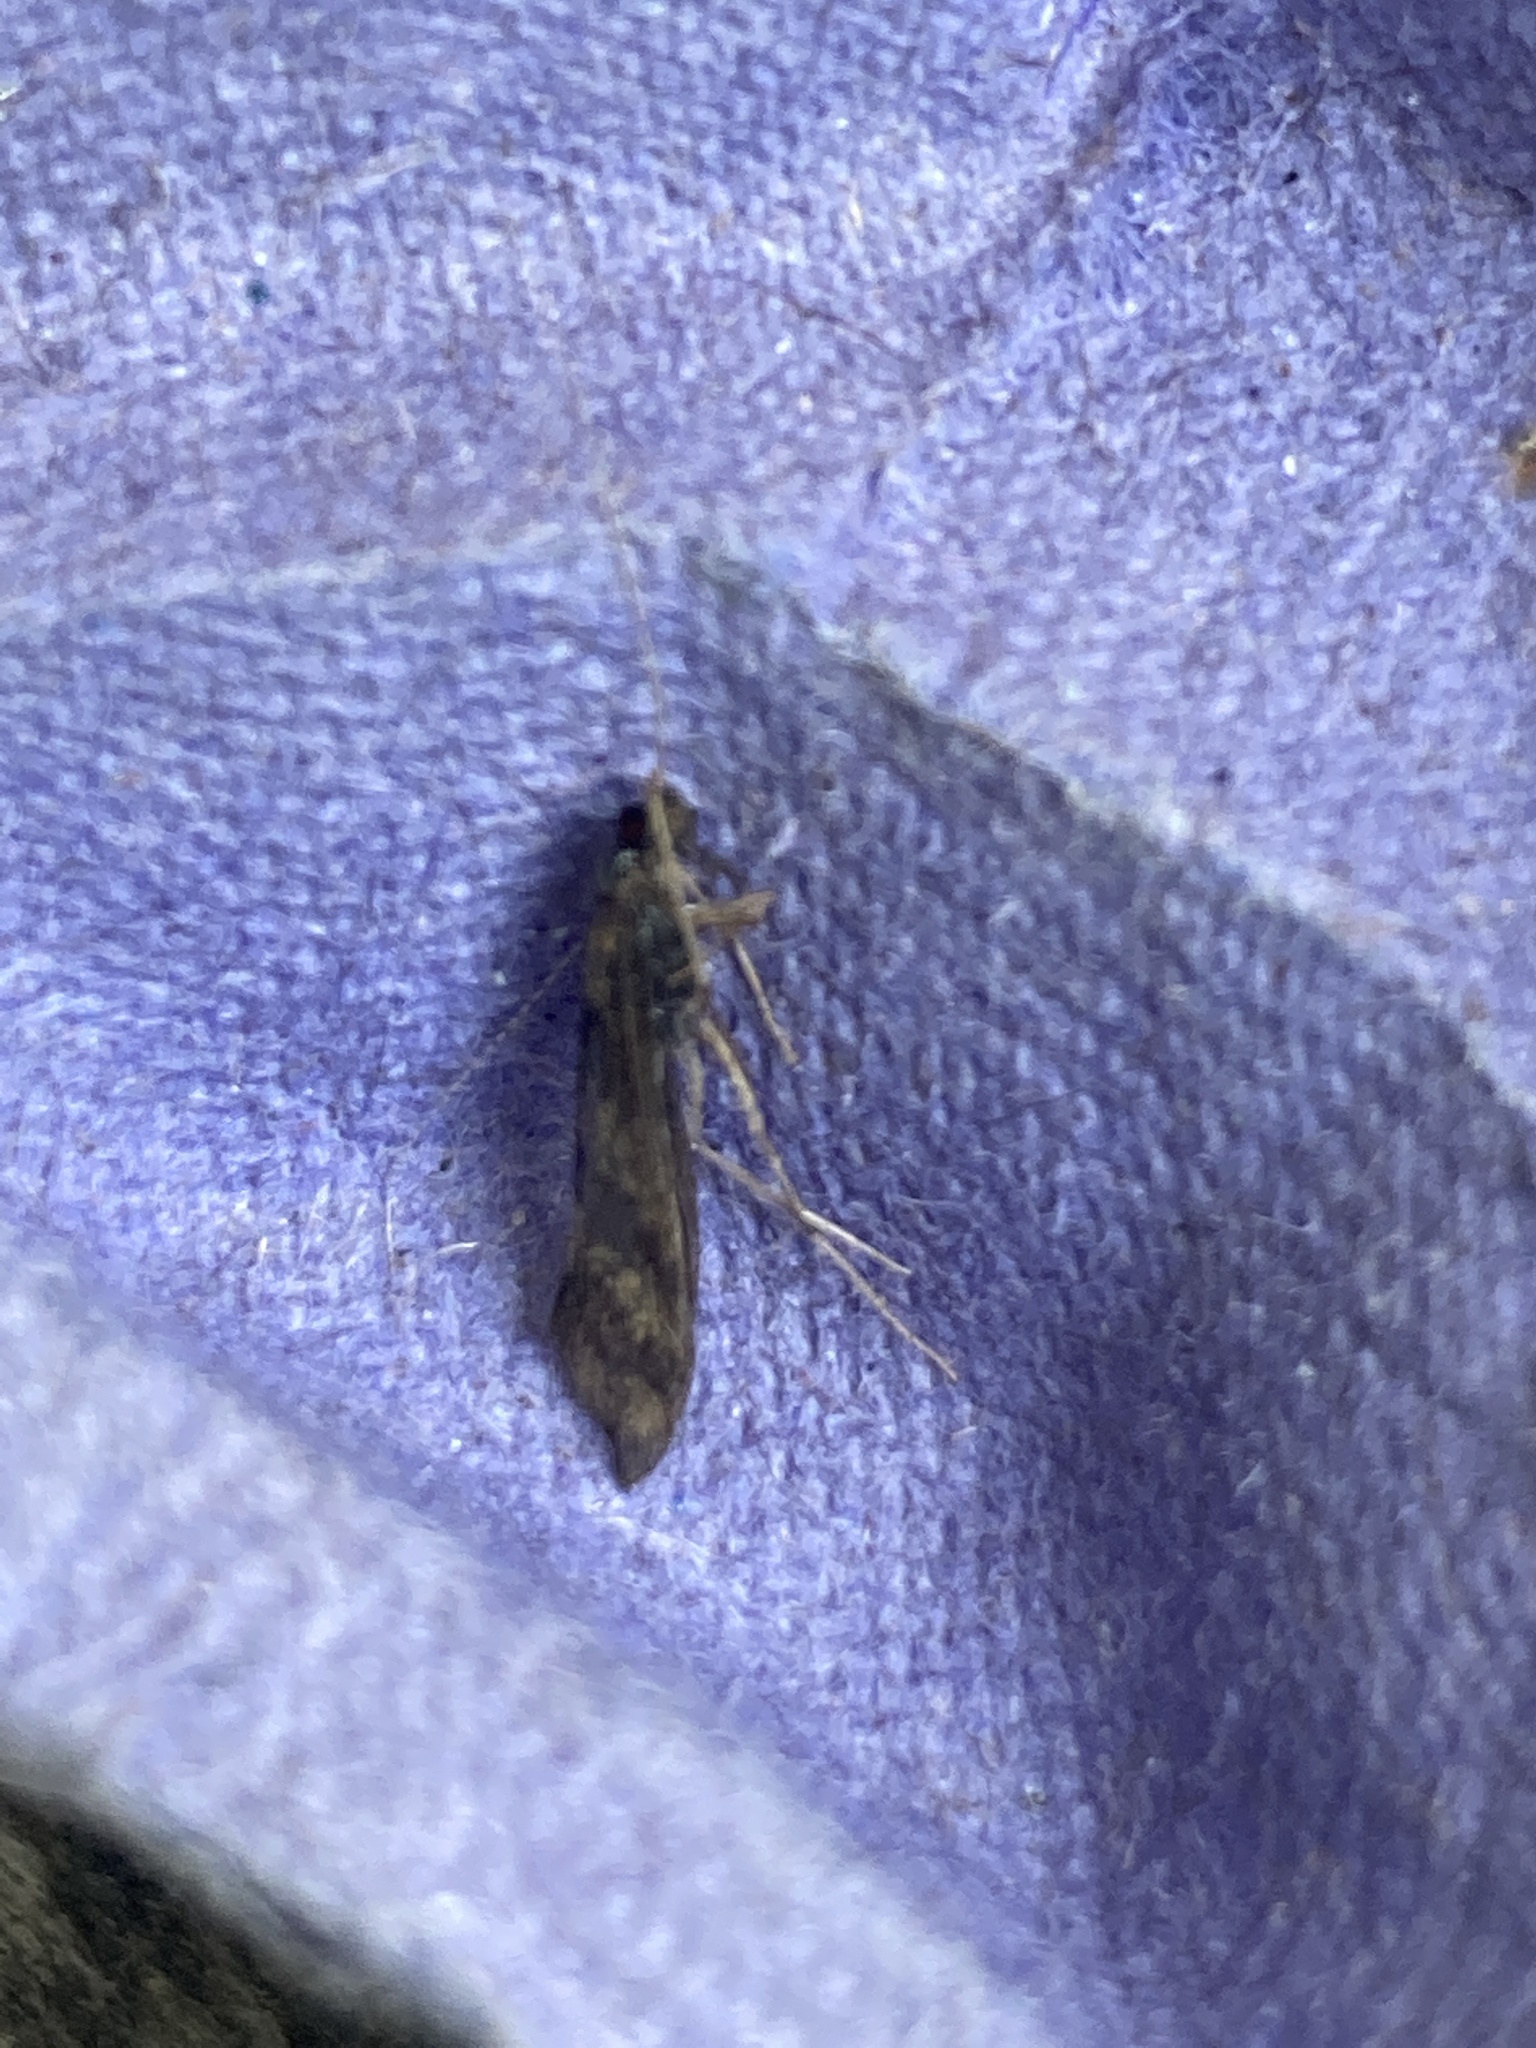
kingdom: Animalia
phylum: Arthropoda
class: Insecta
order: Lepidoptera
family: Crambidae
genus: Nomophila
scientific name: Nomophila noctuella
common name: Rush veneer
